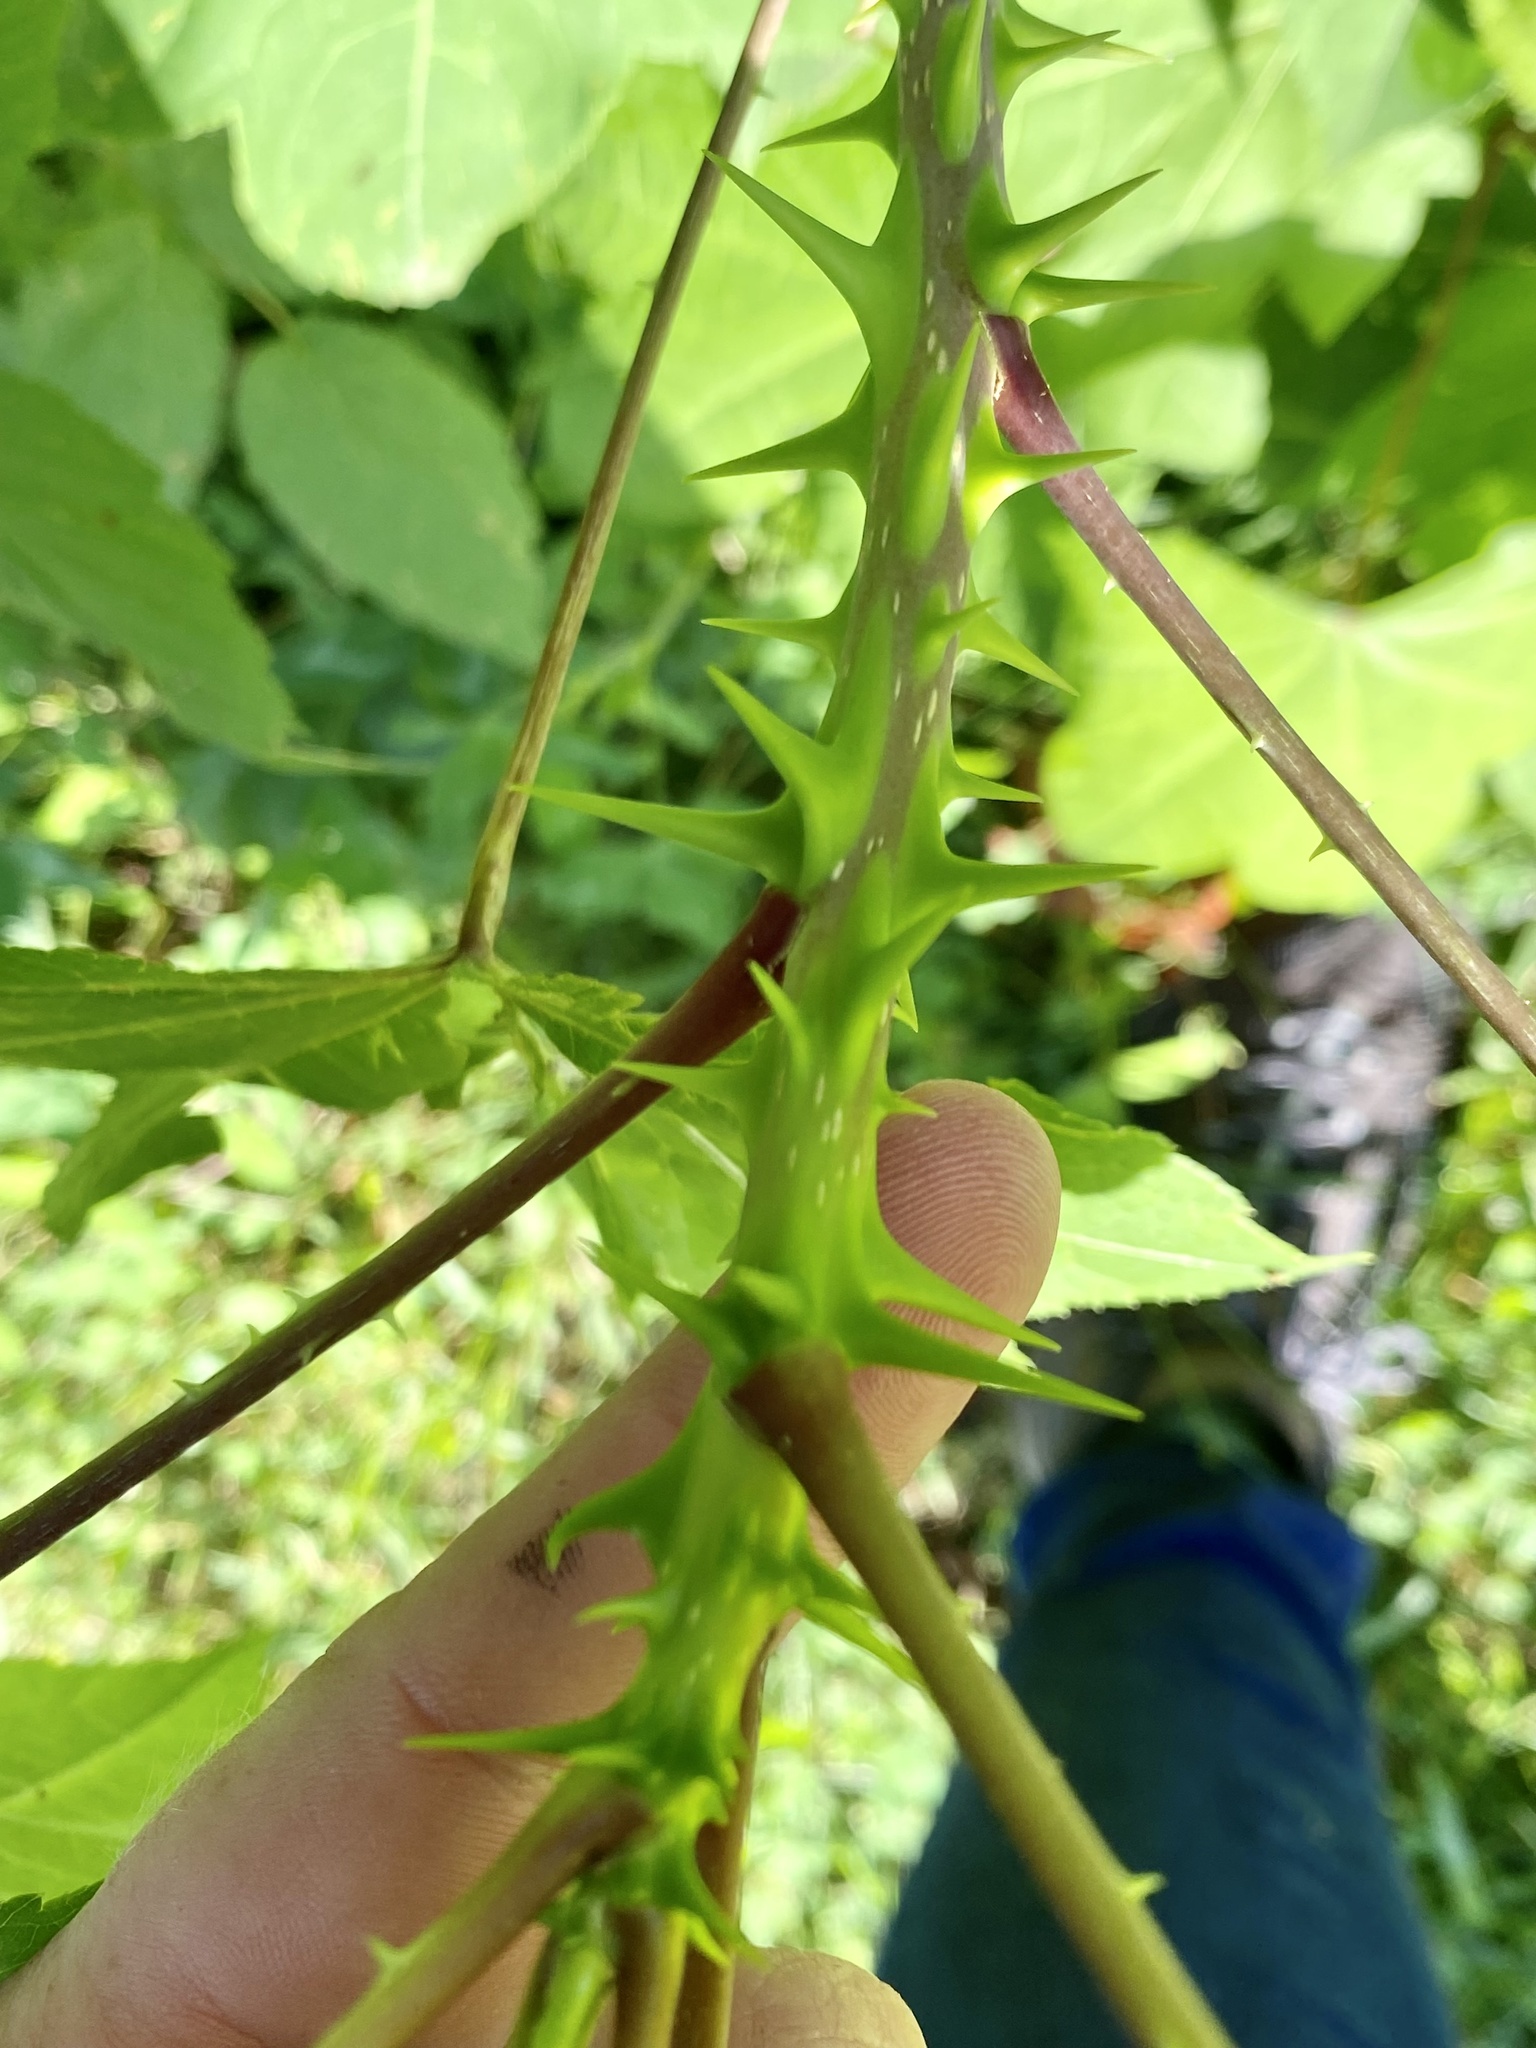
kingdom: Plantae
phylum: Tracheophyta
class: Magnoliopsida
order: Apiales
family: Araliaceae
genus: Kalopanax
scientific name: Kalopanax septemlobus
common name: Castor aralia
